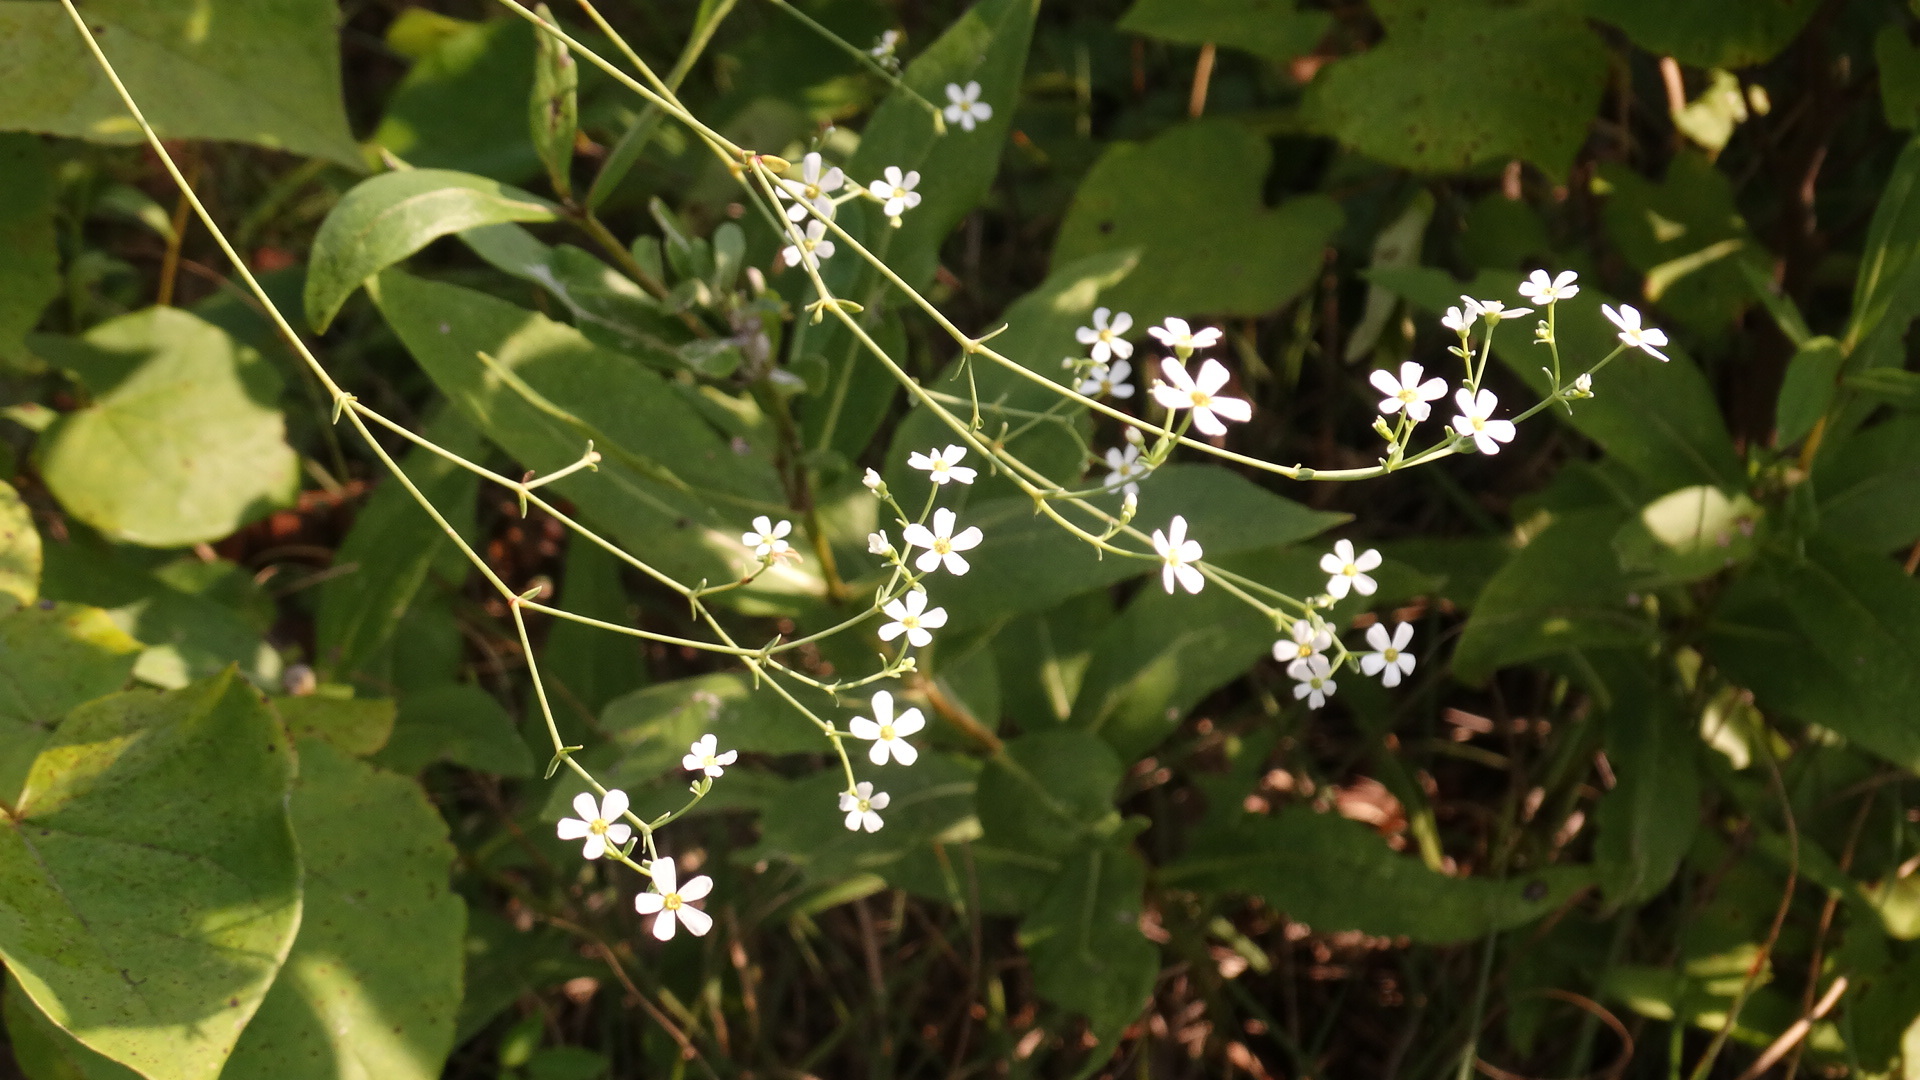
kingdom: Plantae
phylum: Tracheophyta
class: Magnoliopsida
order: Malpighiales
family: Euphorbiaceae
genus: Euphorbia
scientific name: Euphorbia corollata
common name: Flowering spurge
